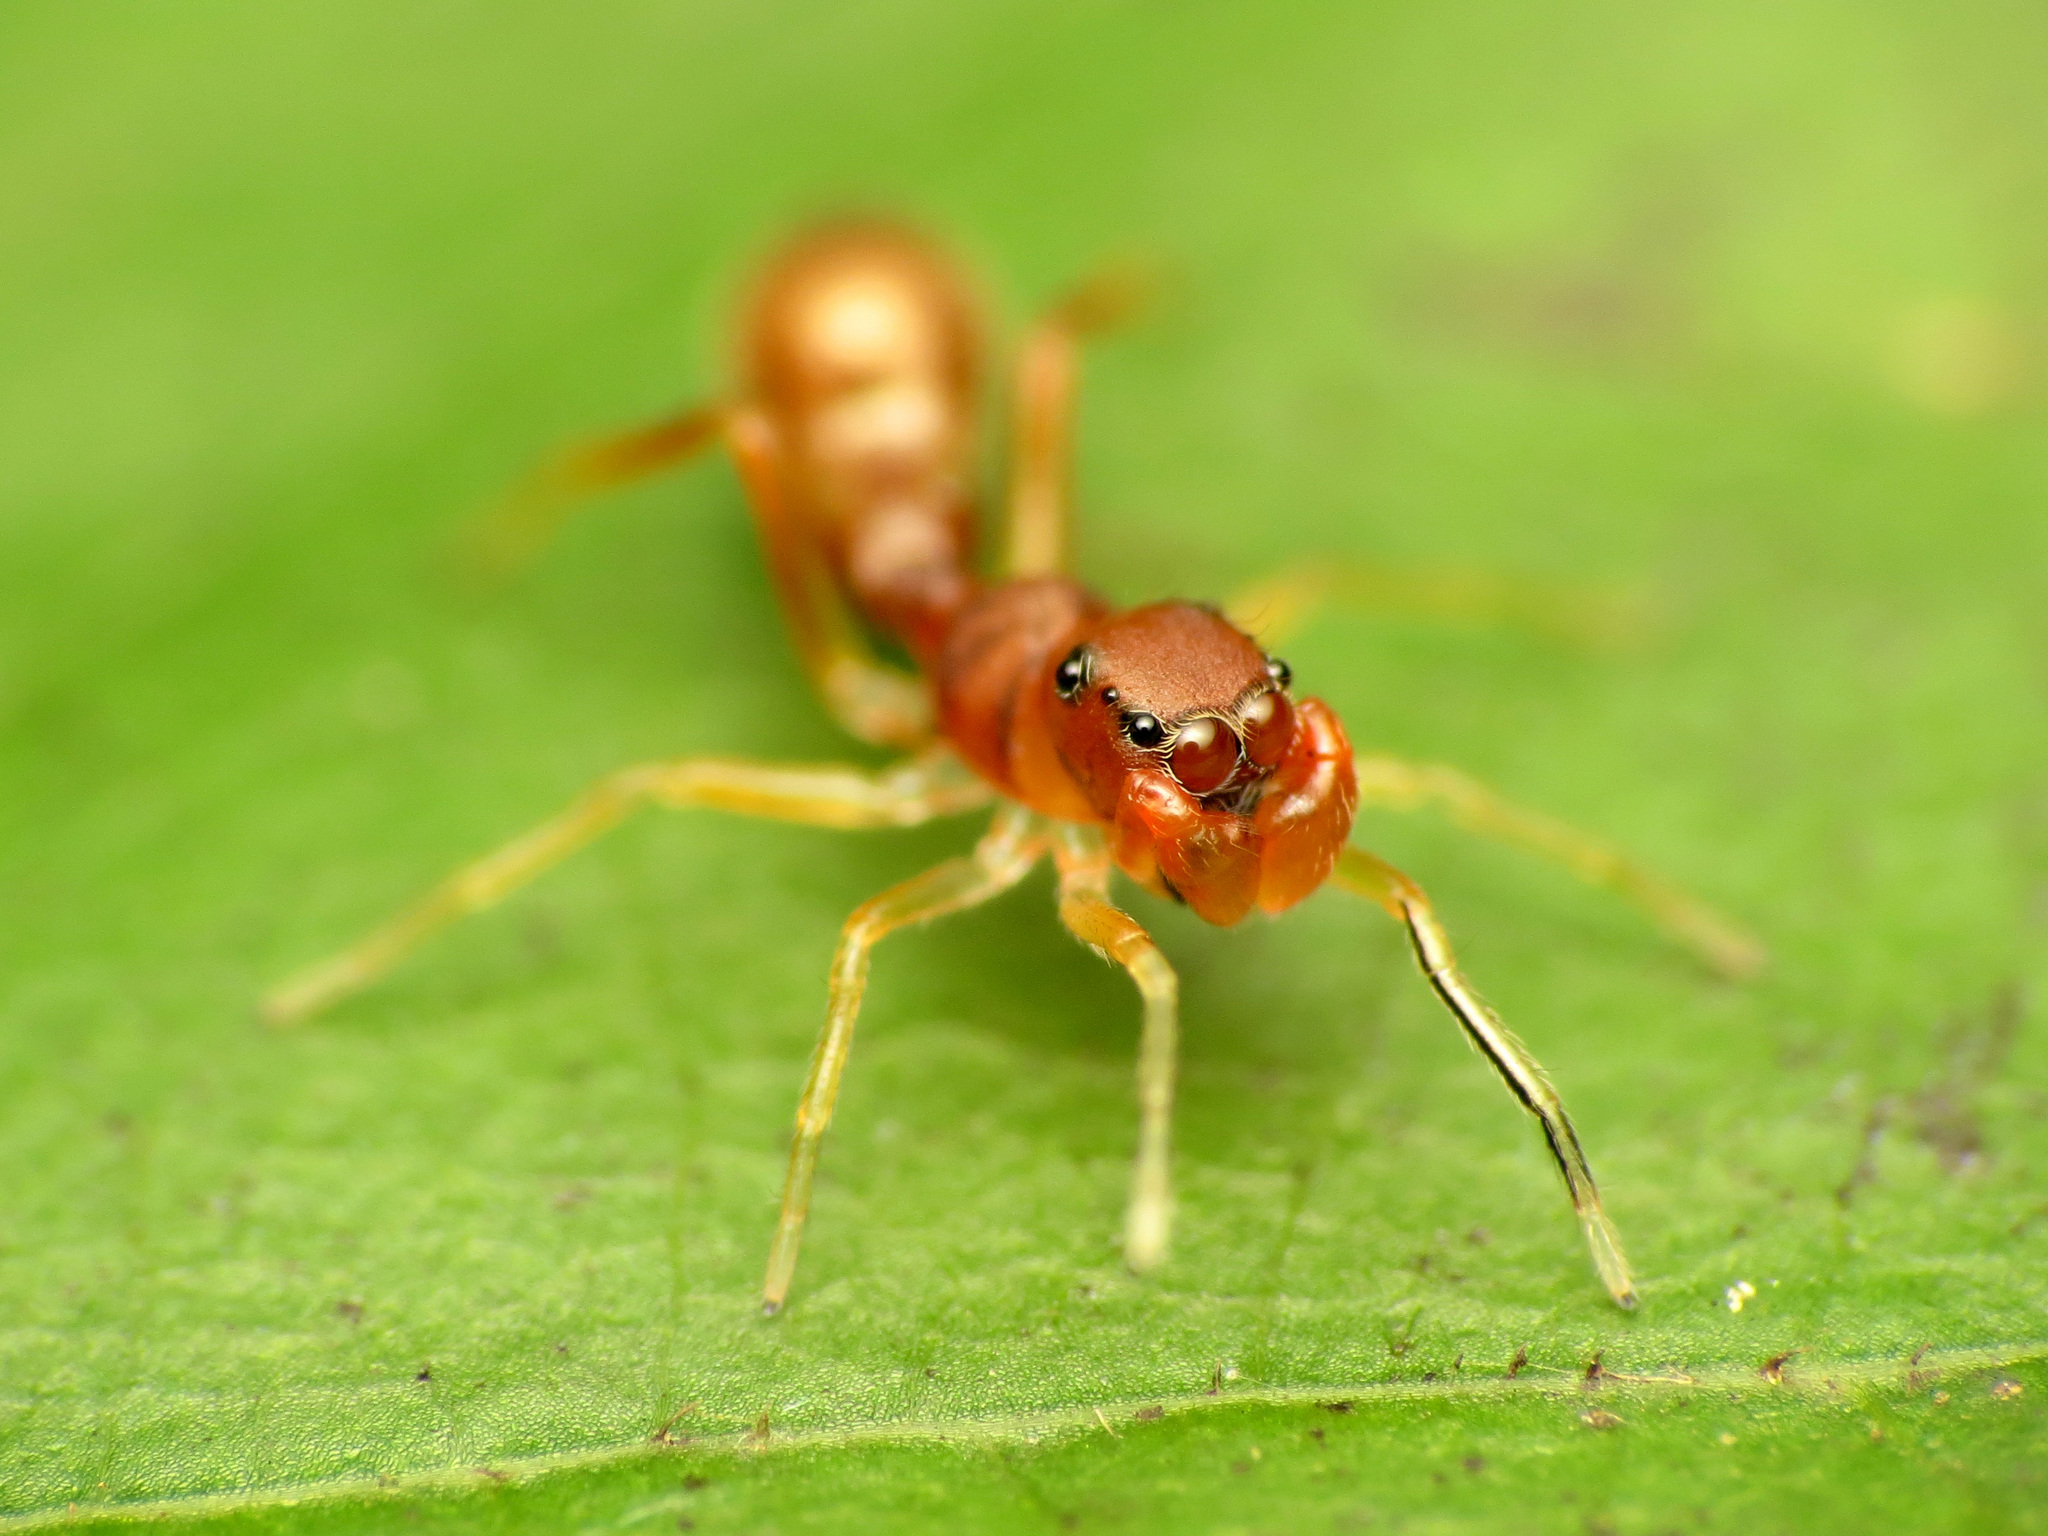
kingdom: Animalia
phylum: Arthropoda
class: Arachnida
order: Araneae
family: Salticidae
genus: Synemosyna
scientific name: Synemosyna formica
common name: Slender ant-mimic jumping spider
